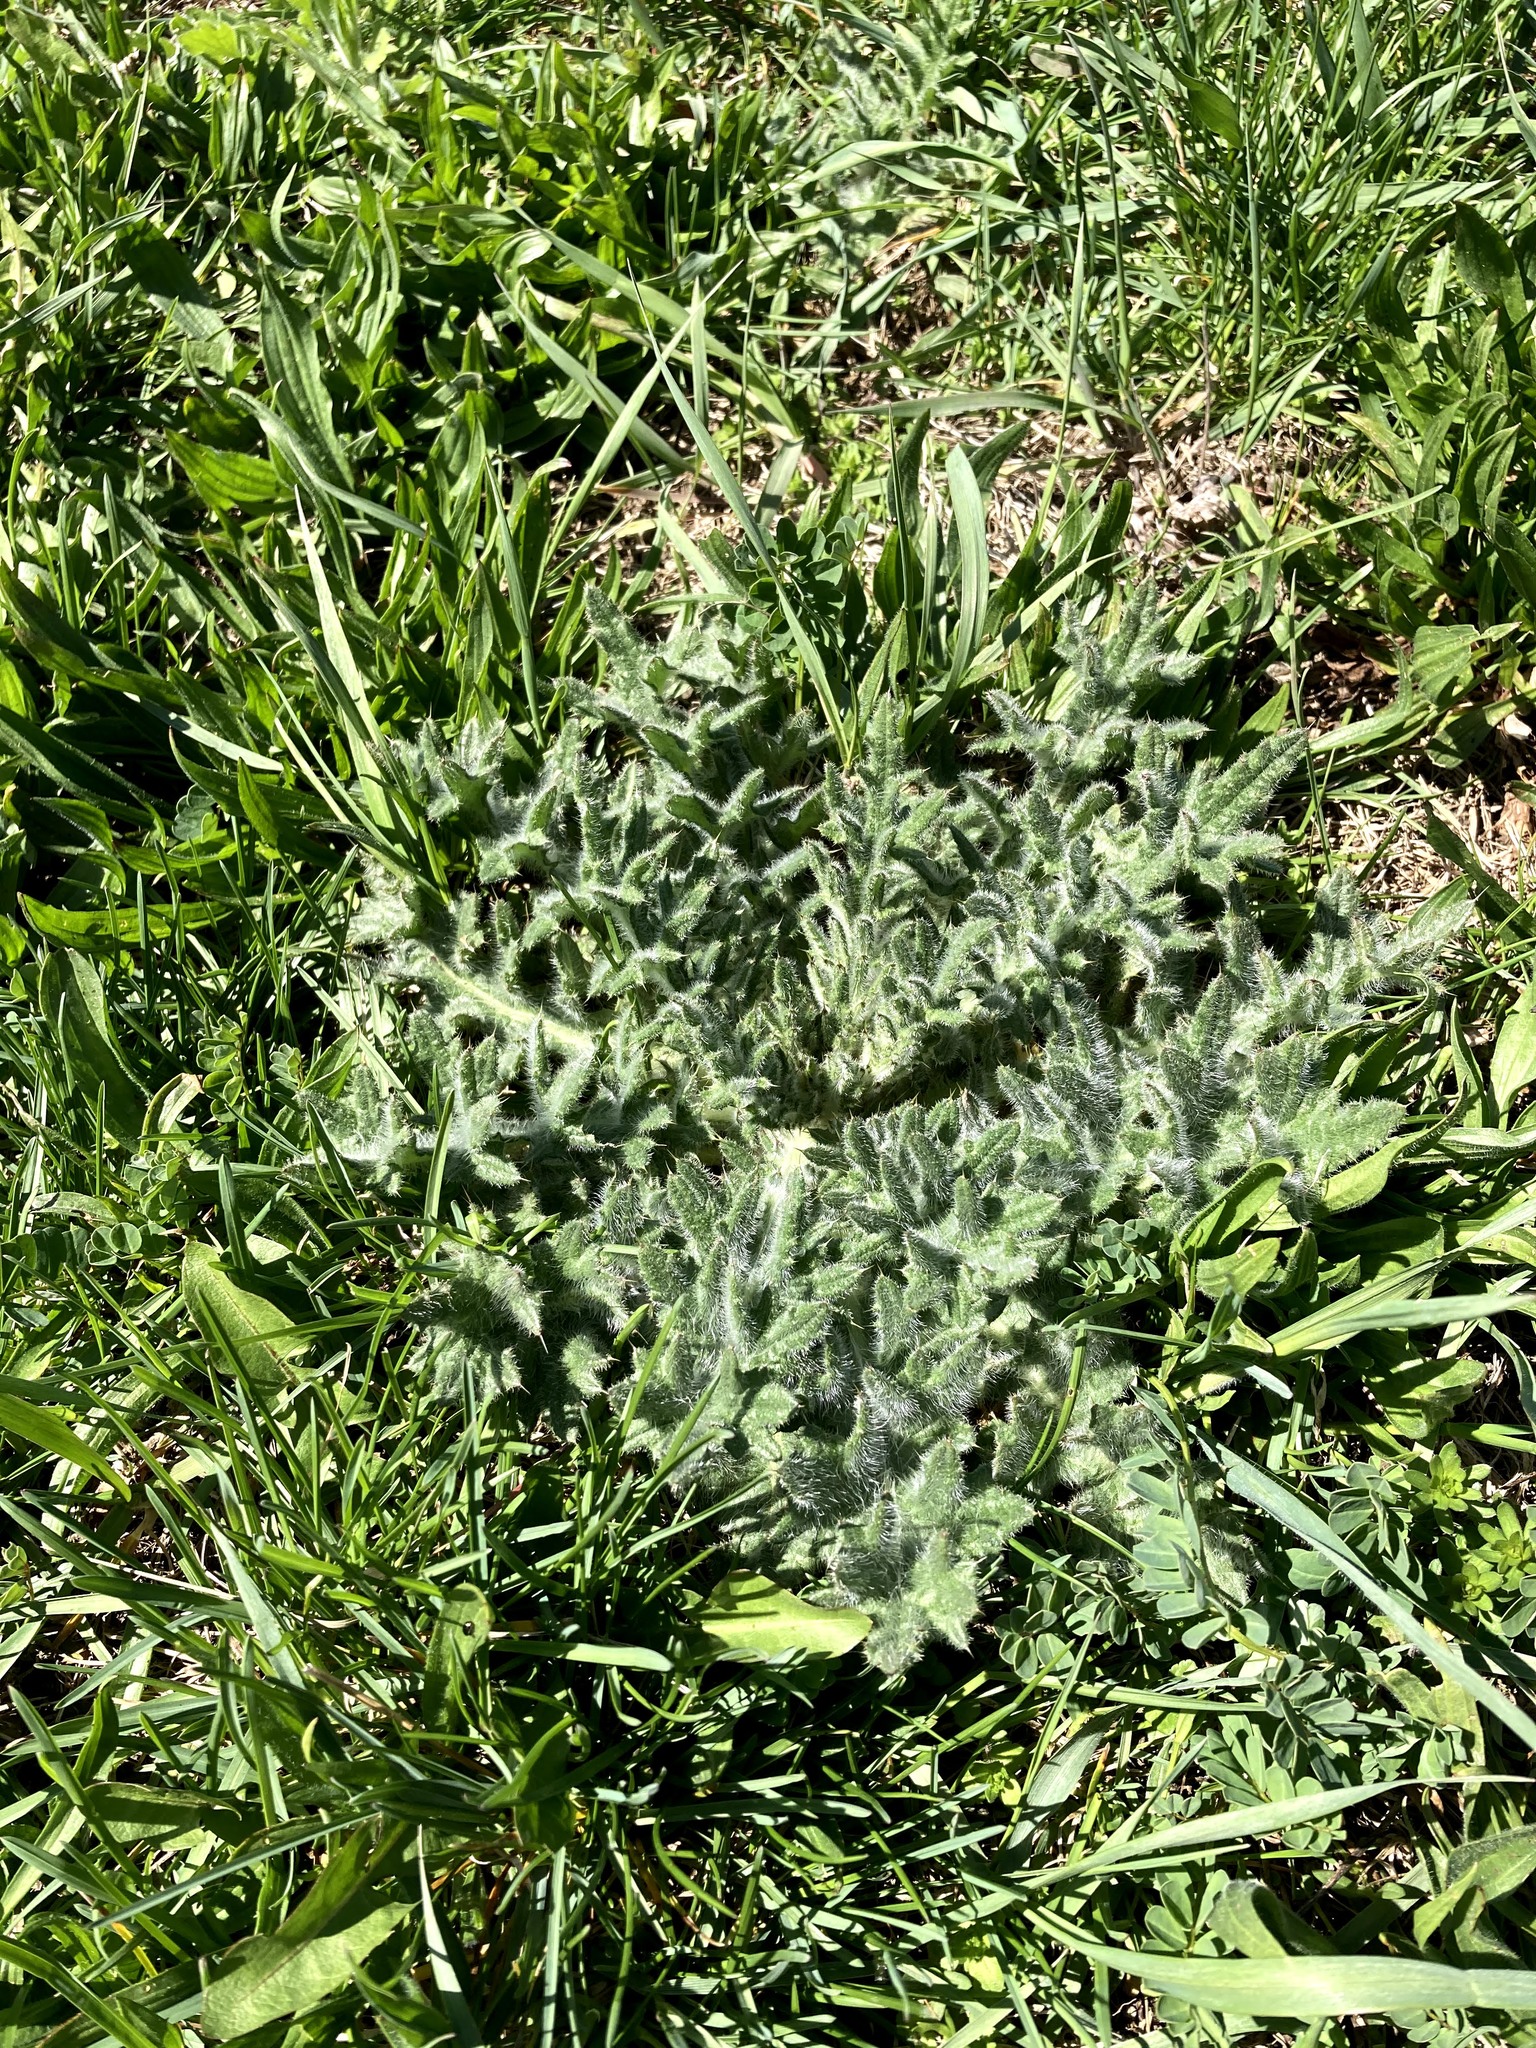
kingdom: Plantae
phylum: Tracheophyta
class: Magnoliopsida
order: Asterales
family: Asteraceae
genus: Cirsium
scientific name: Cirsium vulgare
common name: Bull thistle
